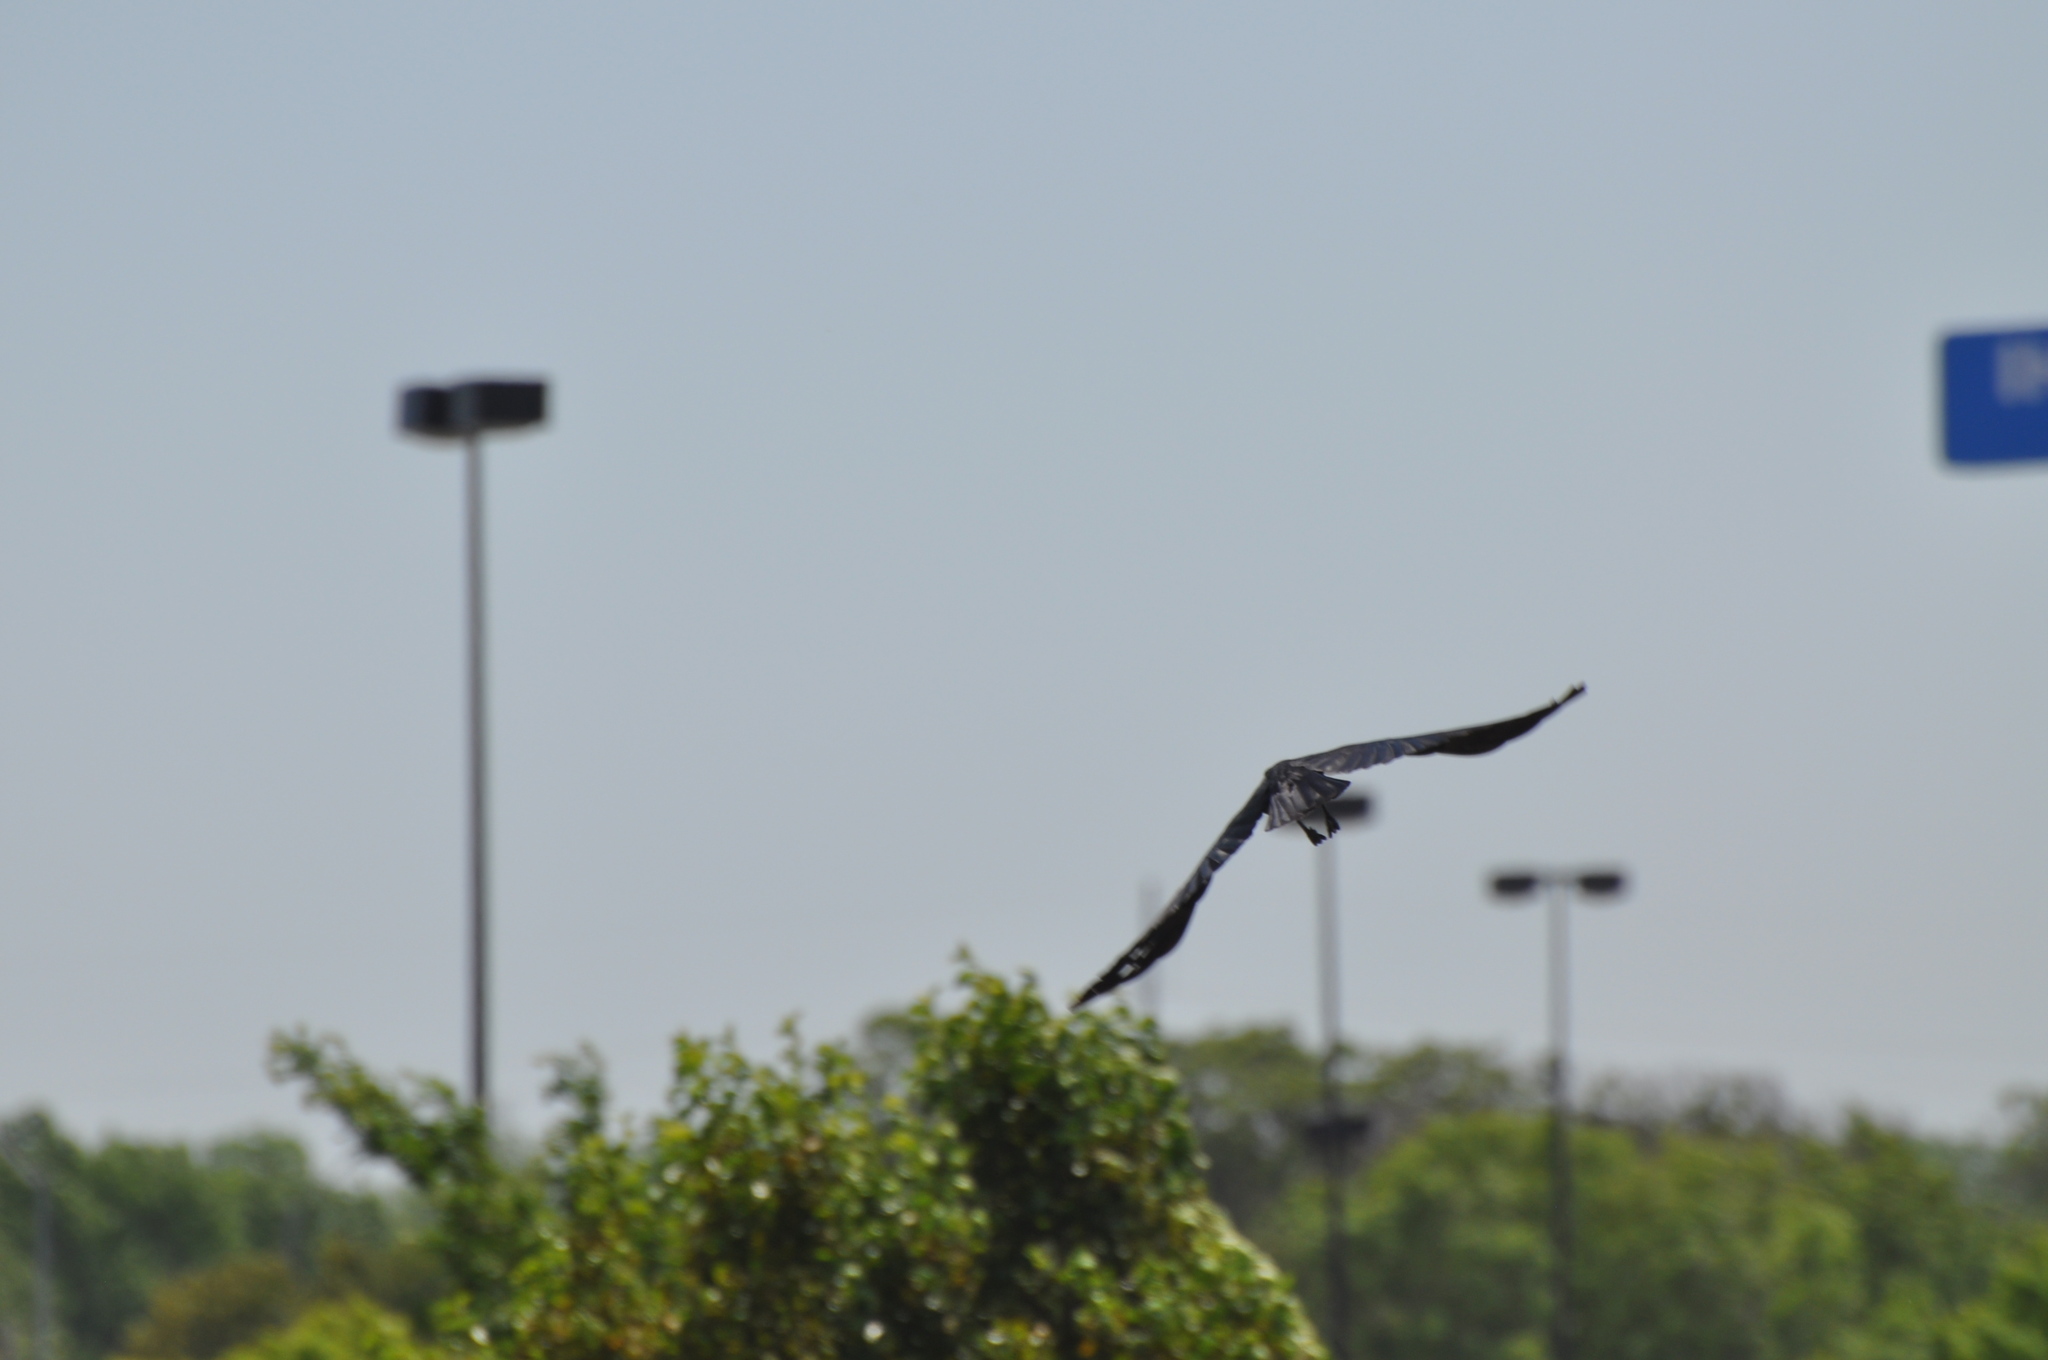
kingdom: Animalia
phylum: Chordata
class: Aves
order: Passeriformes
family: Corvidae
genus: Corvus
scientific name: Corvus brachyrhynchos
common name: American crow
